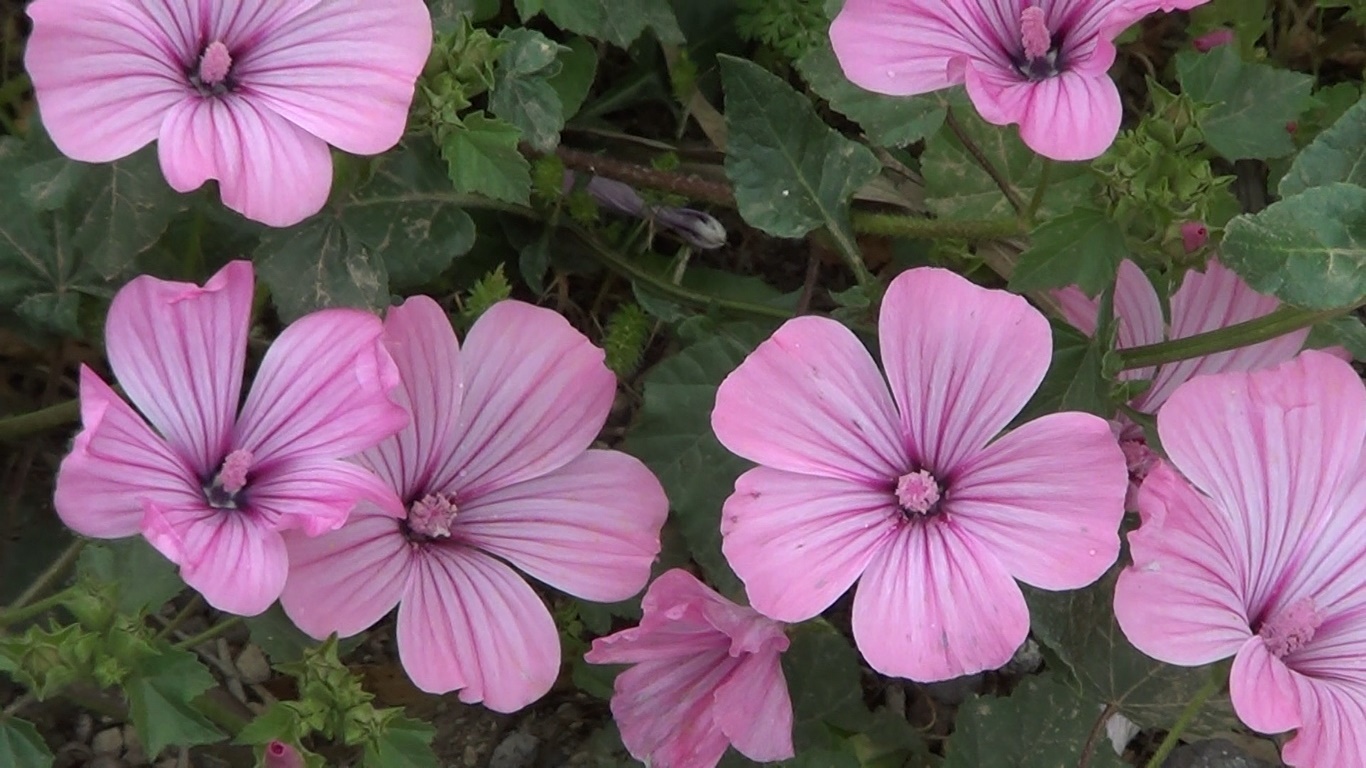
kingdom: Plantae
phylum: Tracheophyta
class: Magnoliopsida
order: Malvales
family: Malvaceae
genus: Malva
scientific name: Malva trimestris
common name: Royal mallow
